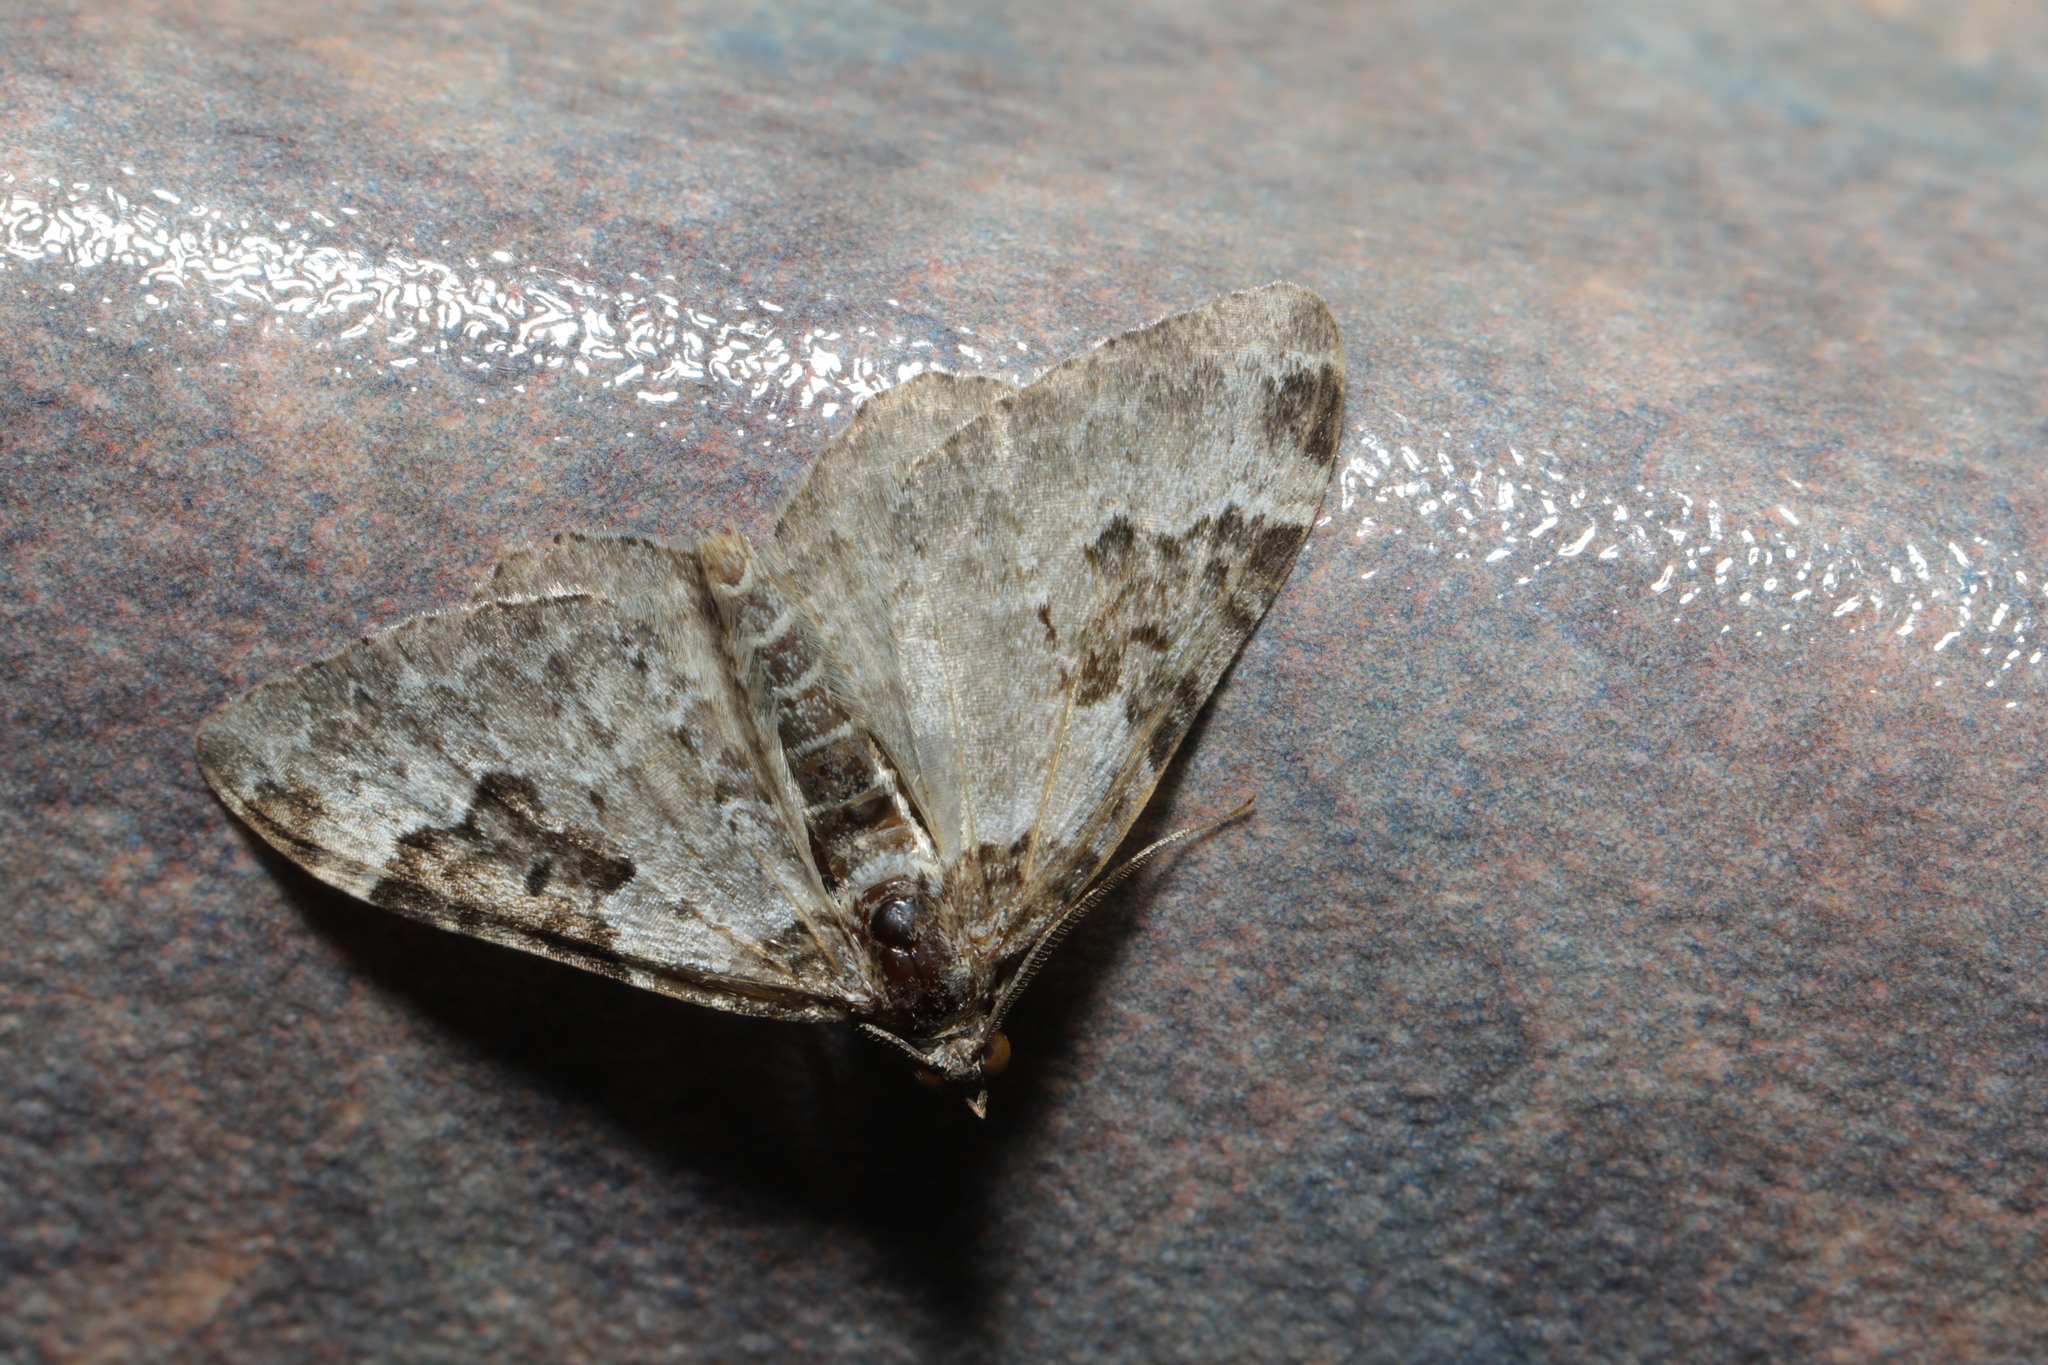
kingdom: Animalia
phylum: Arthropoda
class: Insecta
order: Lepidoptera
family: Geometridae
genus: Xanthorhoe
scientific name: Xanthorhoe fluctuata
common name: Garden carpet
